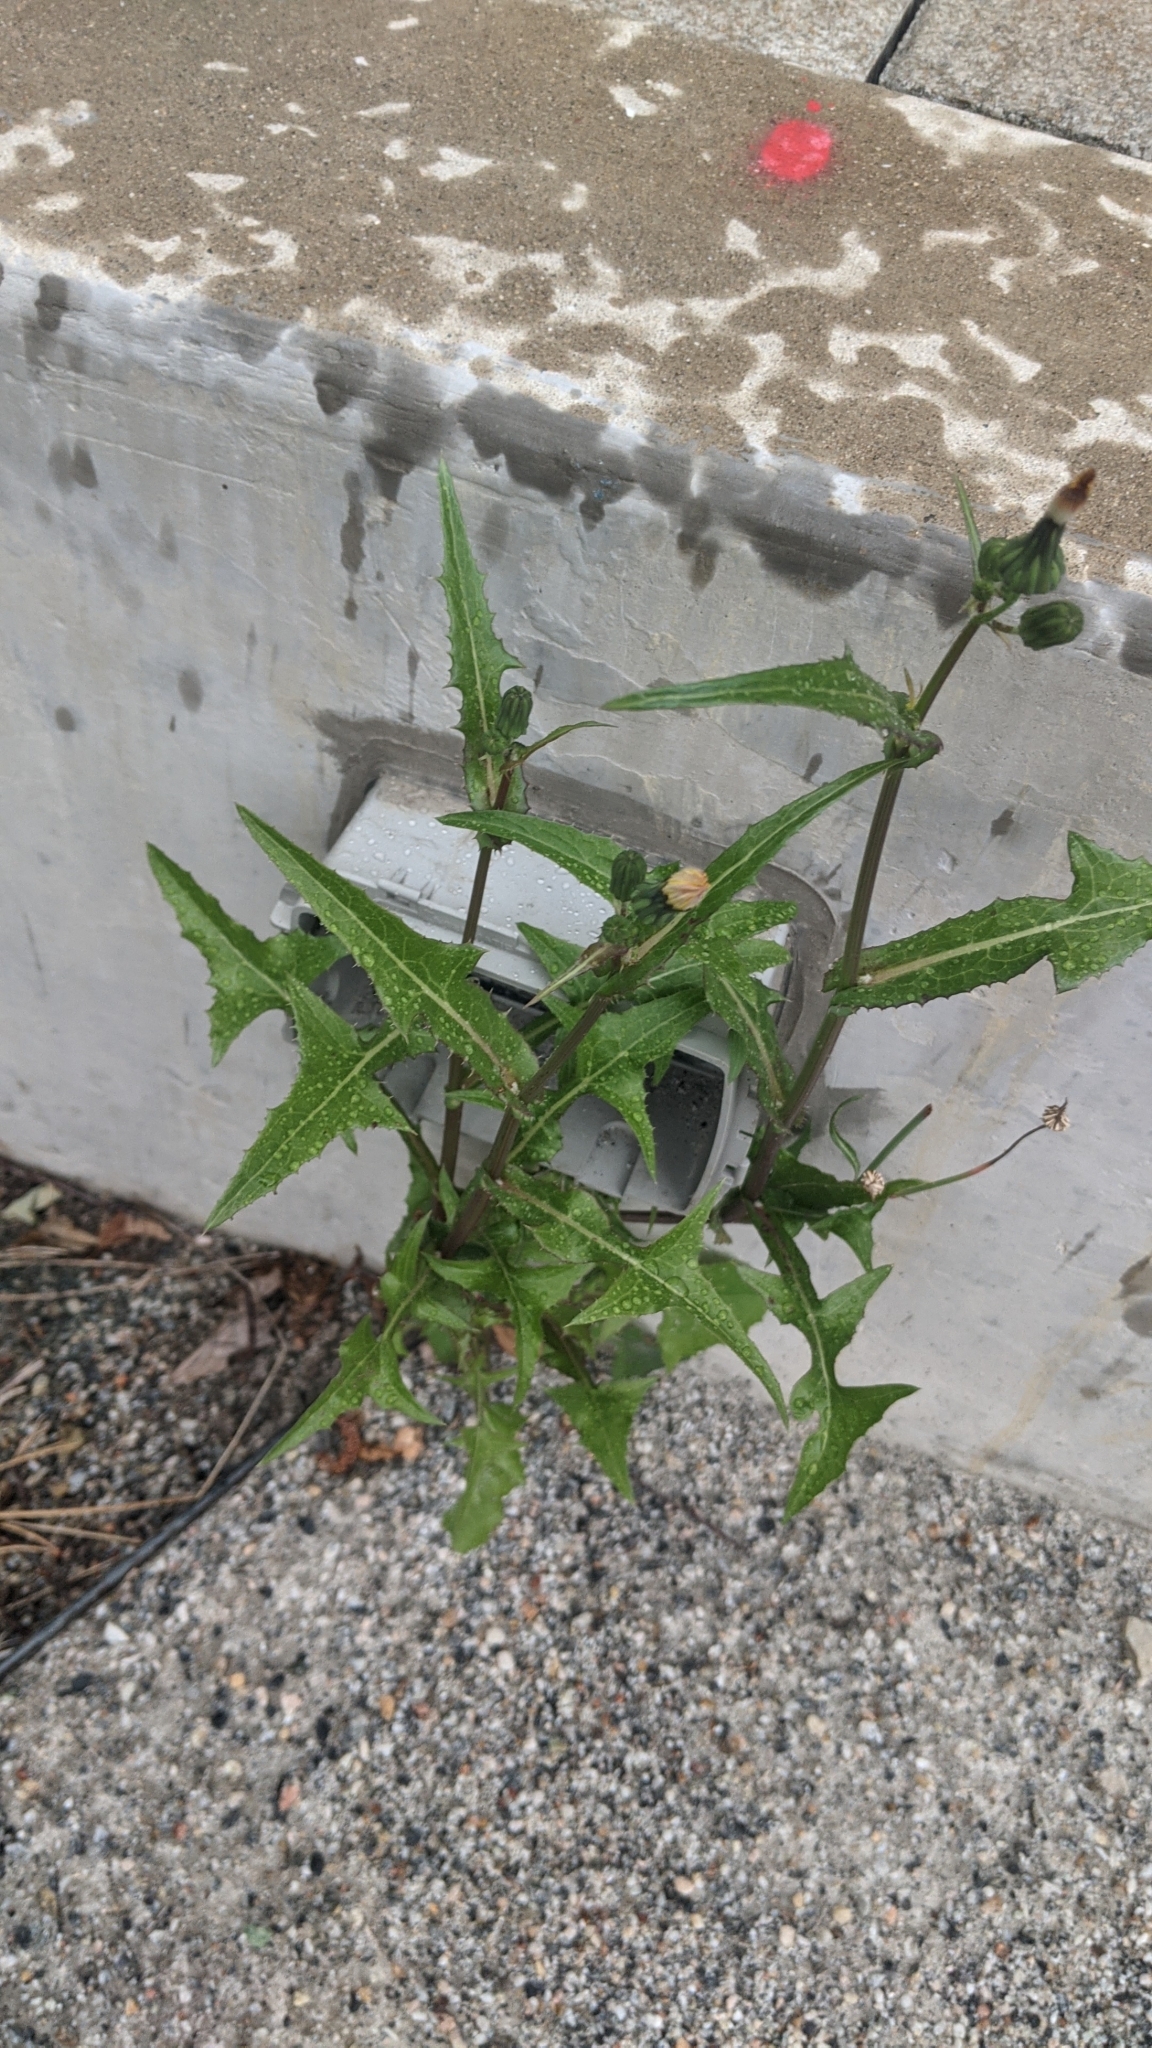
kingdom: Plantae
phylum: Tracheophyta
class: Magnoliopsida
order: Asterales
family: Asteraceae
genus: Sonchus
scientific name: Sonchus oleraceus
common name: Common sowthistle
